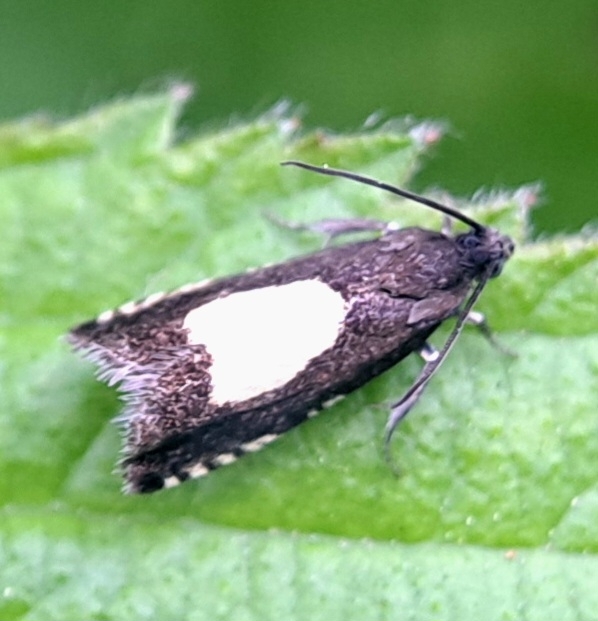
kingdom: Animalia
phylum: Arthropoda
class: Insecta
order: Lepidoptera
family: Tortricidae
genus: Pammene
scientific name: Pammene trauniana
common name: Maple piercer
